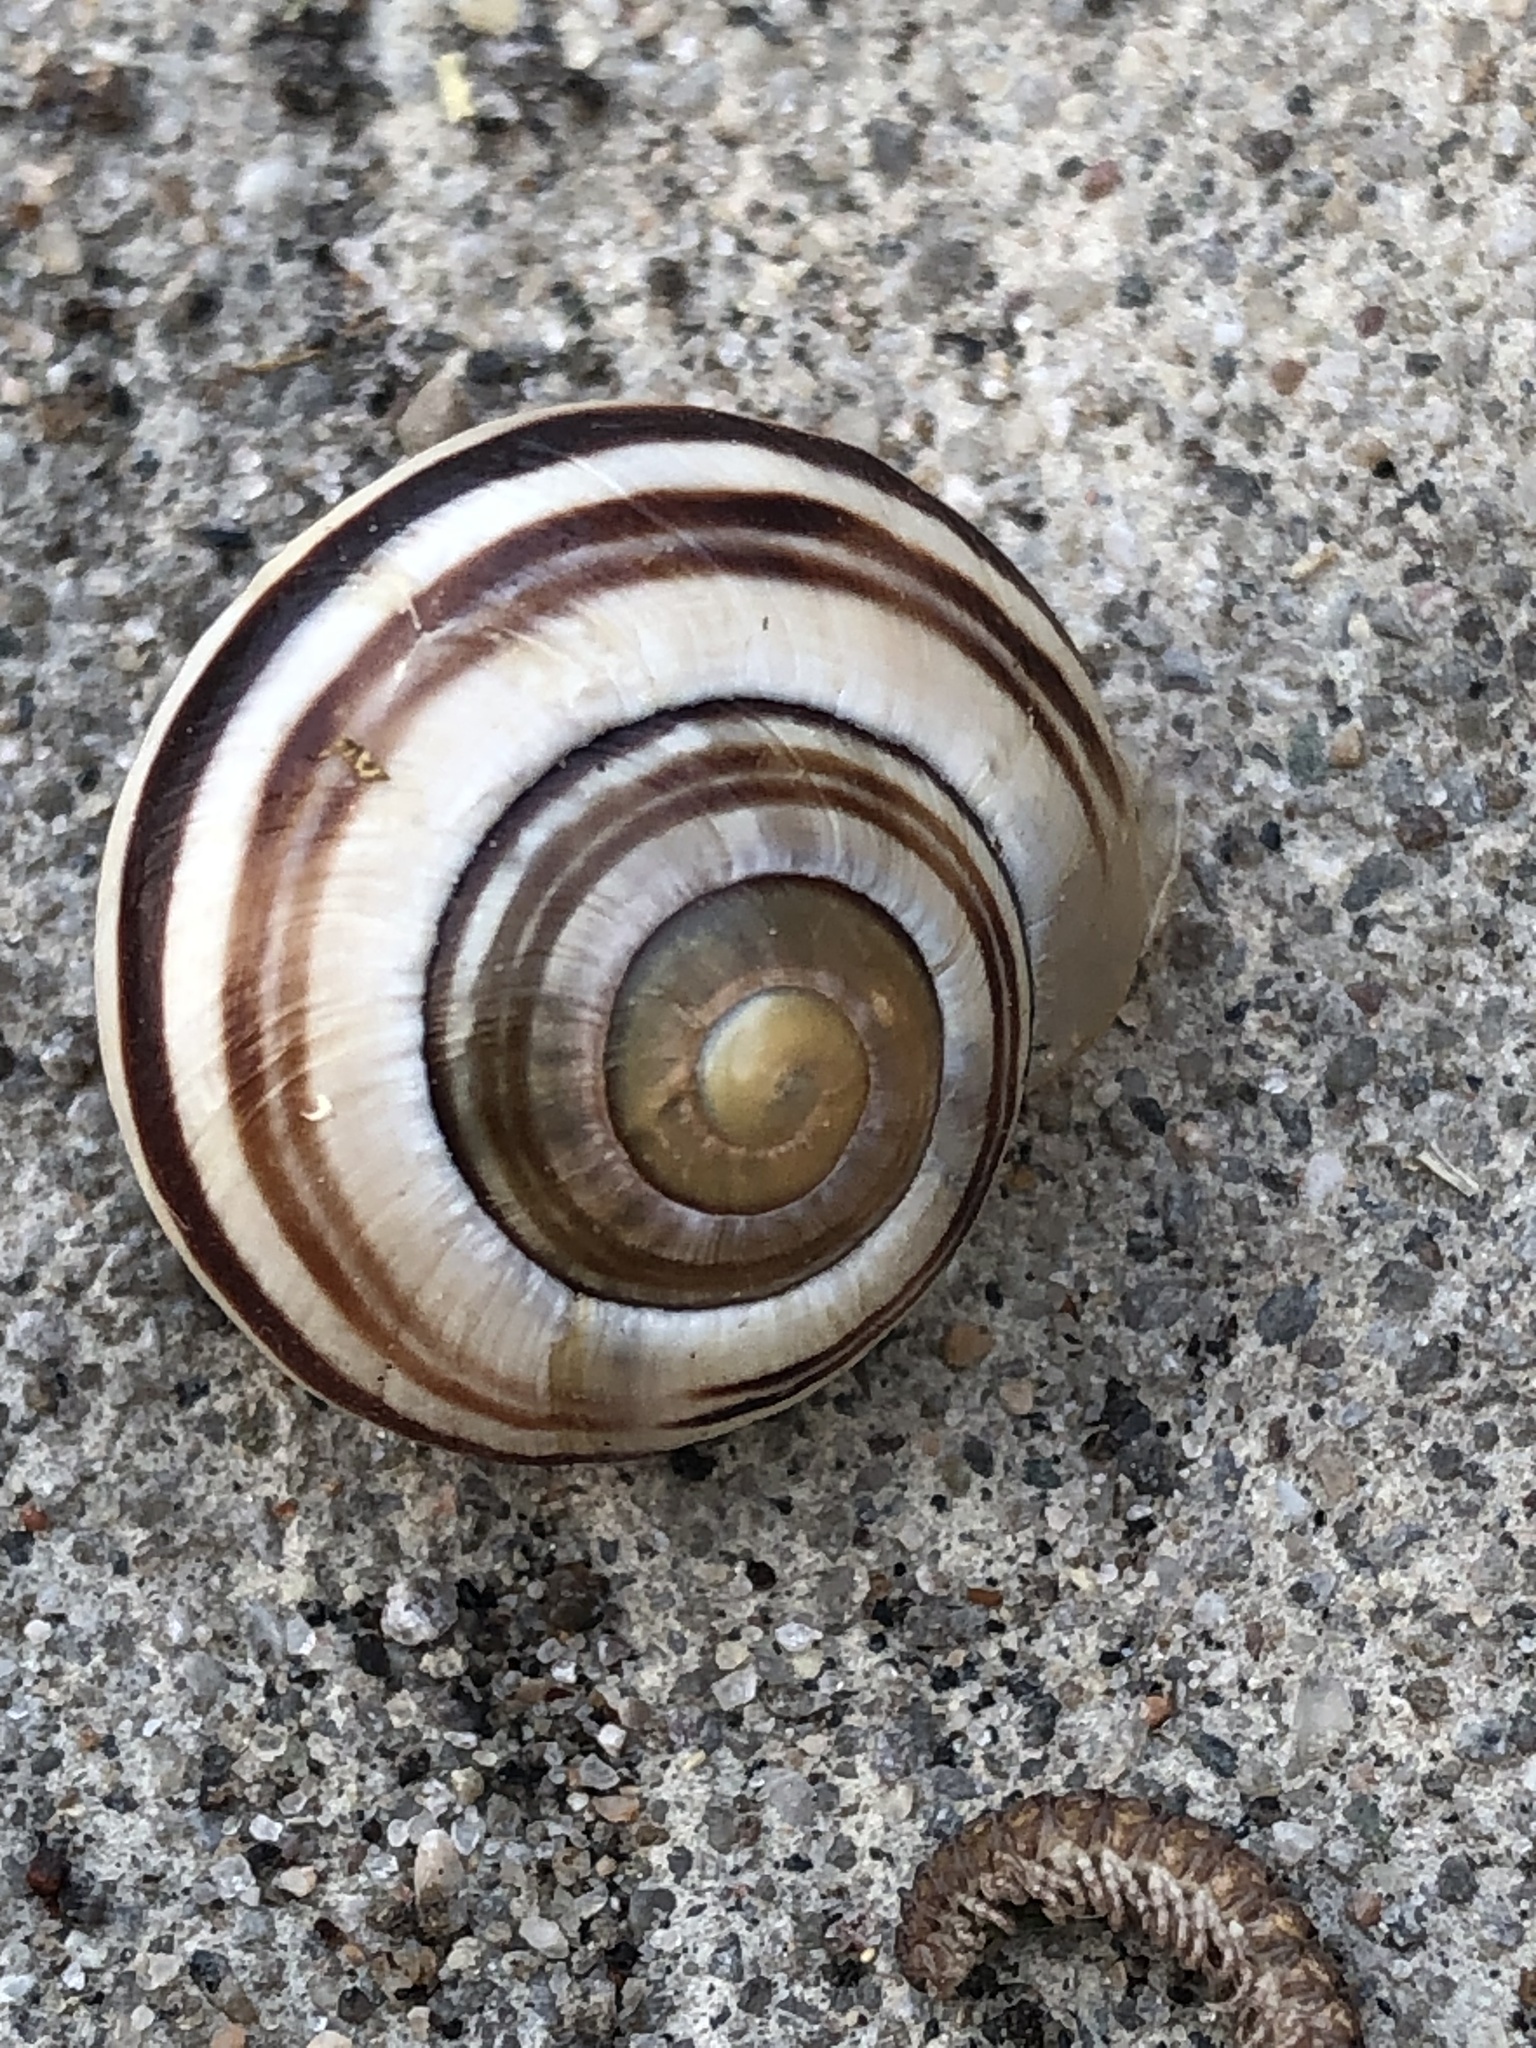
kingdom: Animalia
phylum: Mollusca
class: Gastropoda
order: Stylommatophora
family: Helicidae
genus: Cepaea
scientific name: Cepaea nemoralis
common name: Grovesnail
